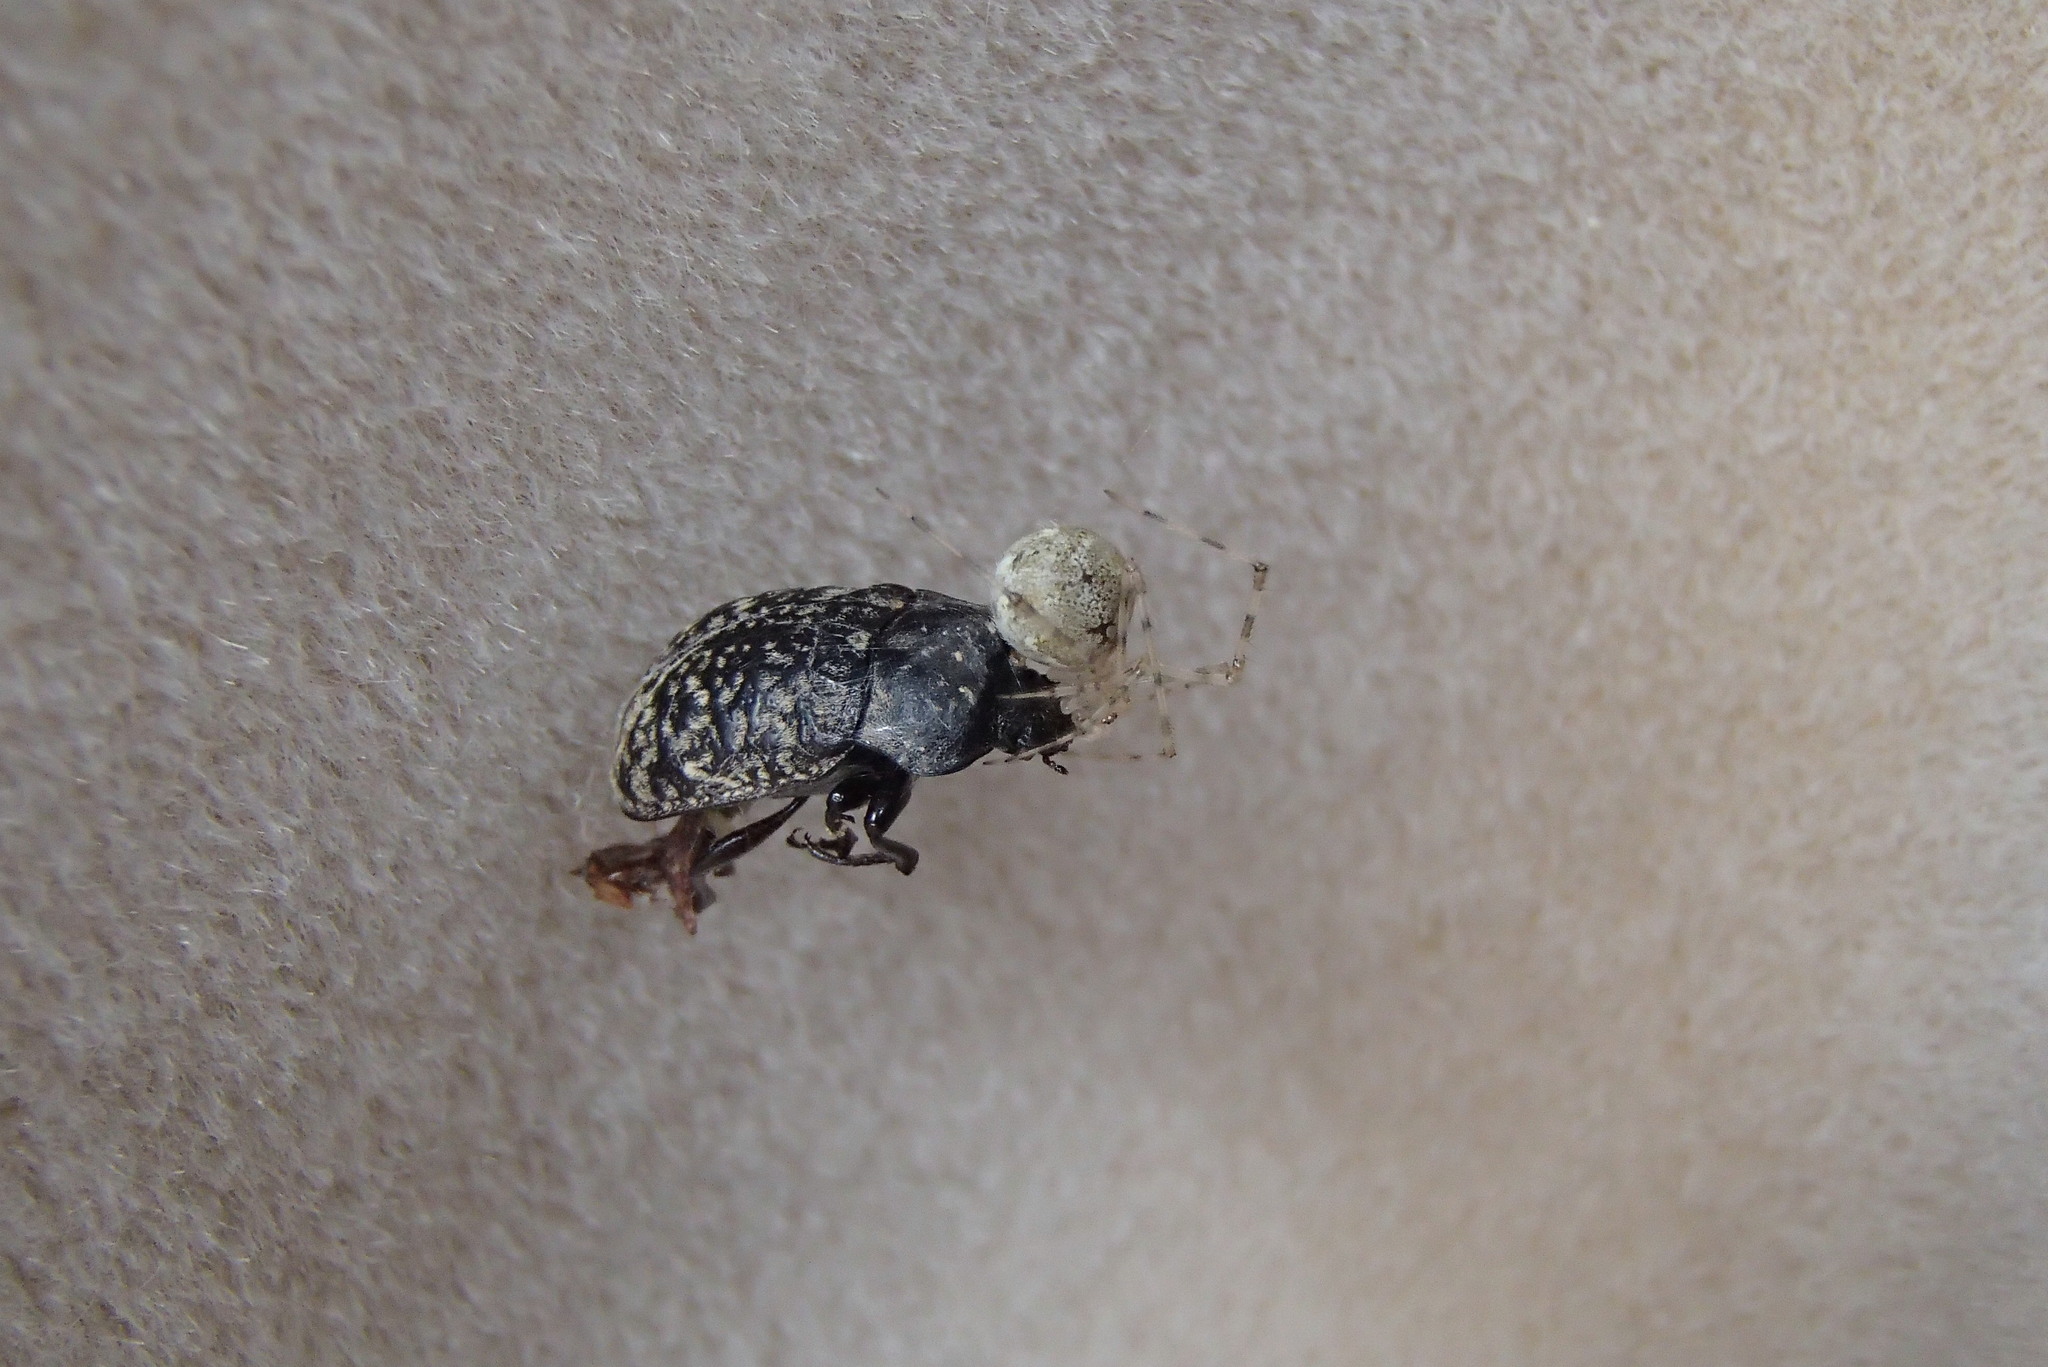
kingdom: Animalia
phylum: Arthropoda
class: Arachnida
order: Araneae
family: Theridiidae
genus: Cryptachaea
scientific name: Cryptachaea gigantipes
